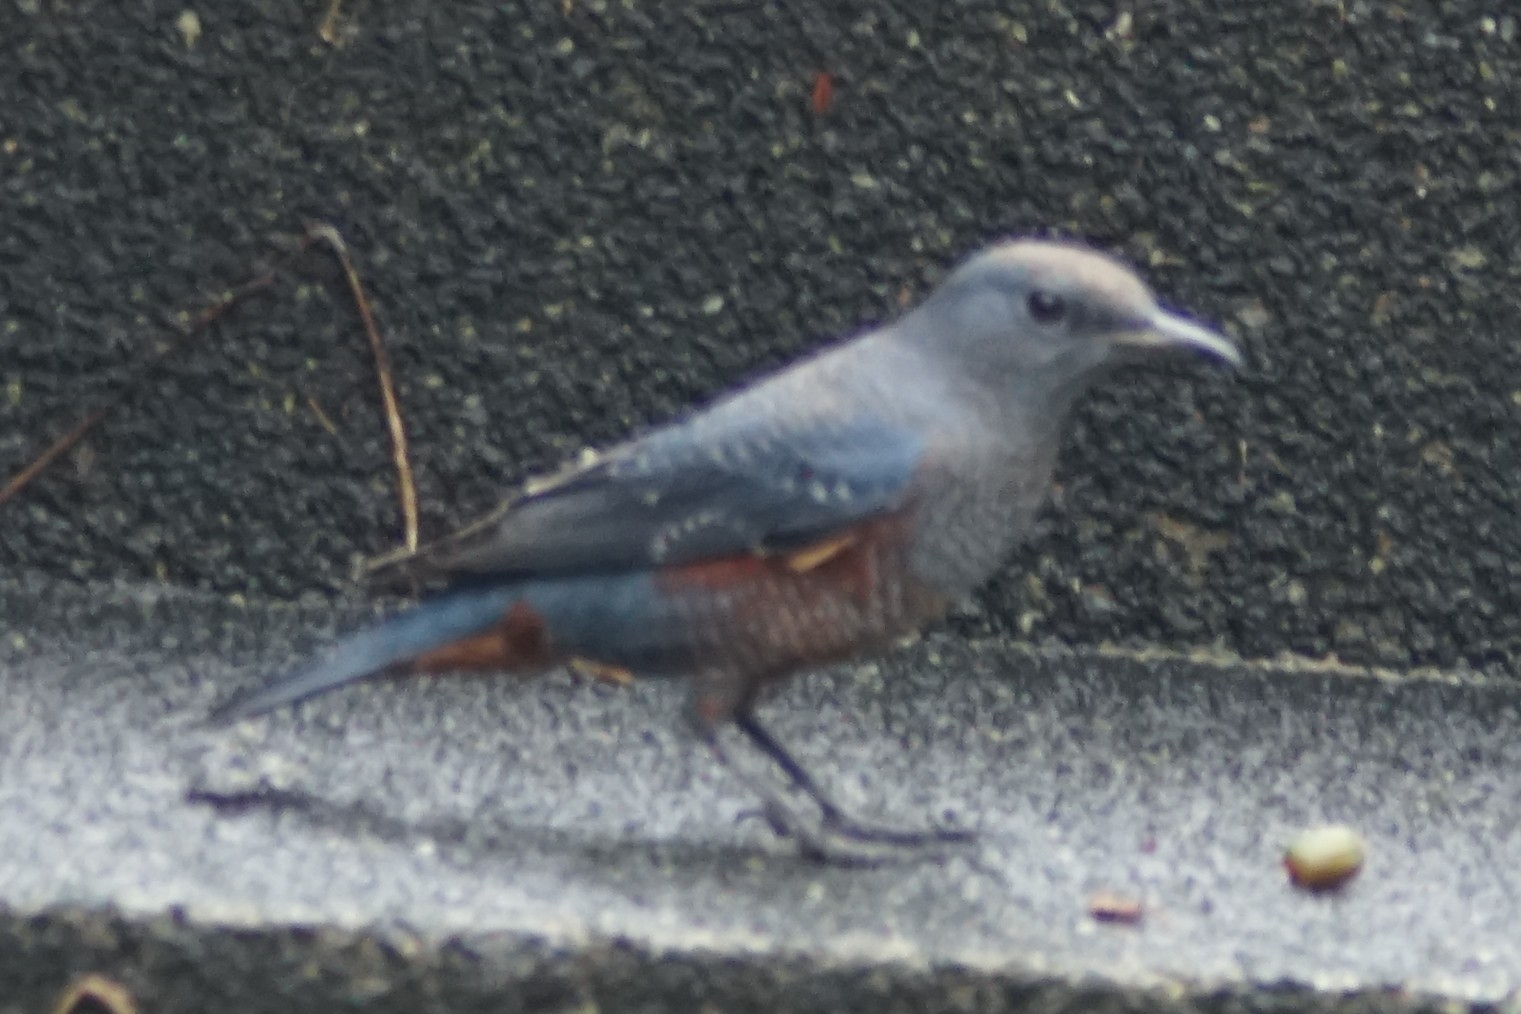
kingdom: Animalia
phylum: Chordata
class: Aves
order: Passeriformes
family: Muscicapidae
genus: Monticola
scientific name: Monticola solitarius
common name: Blue rock thrush
